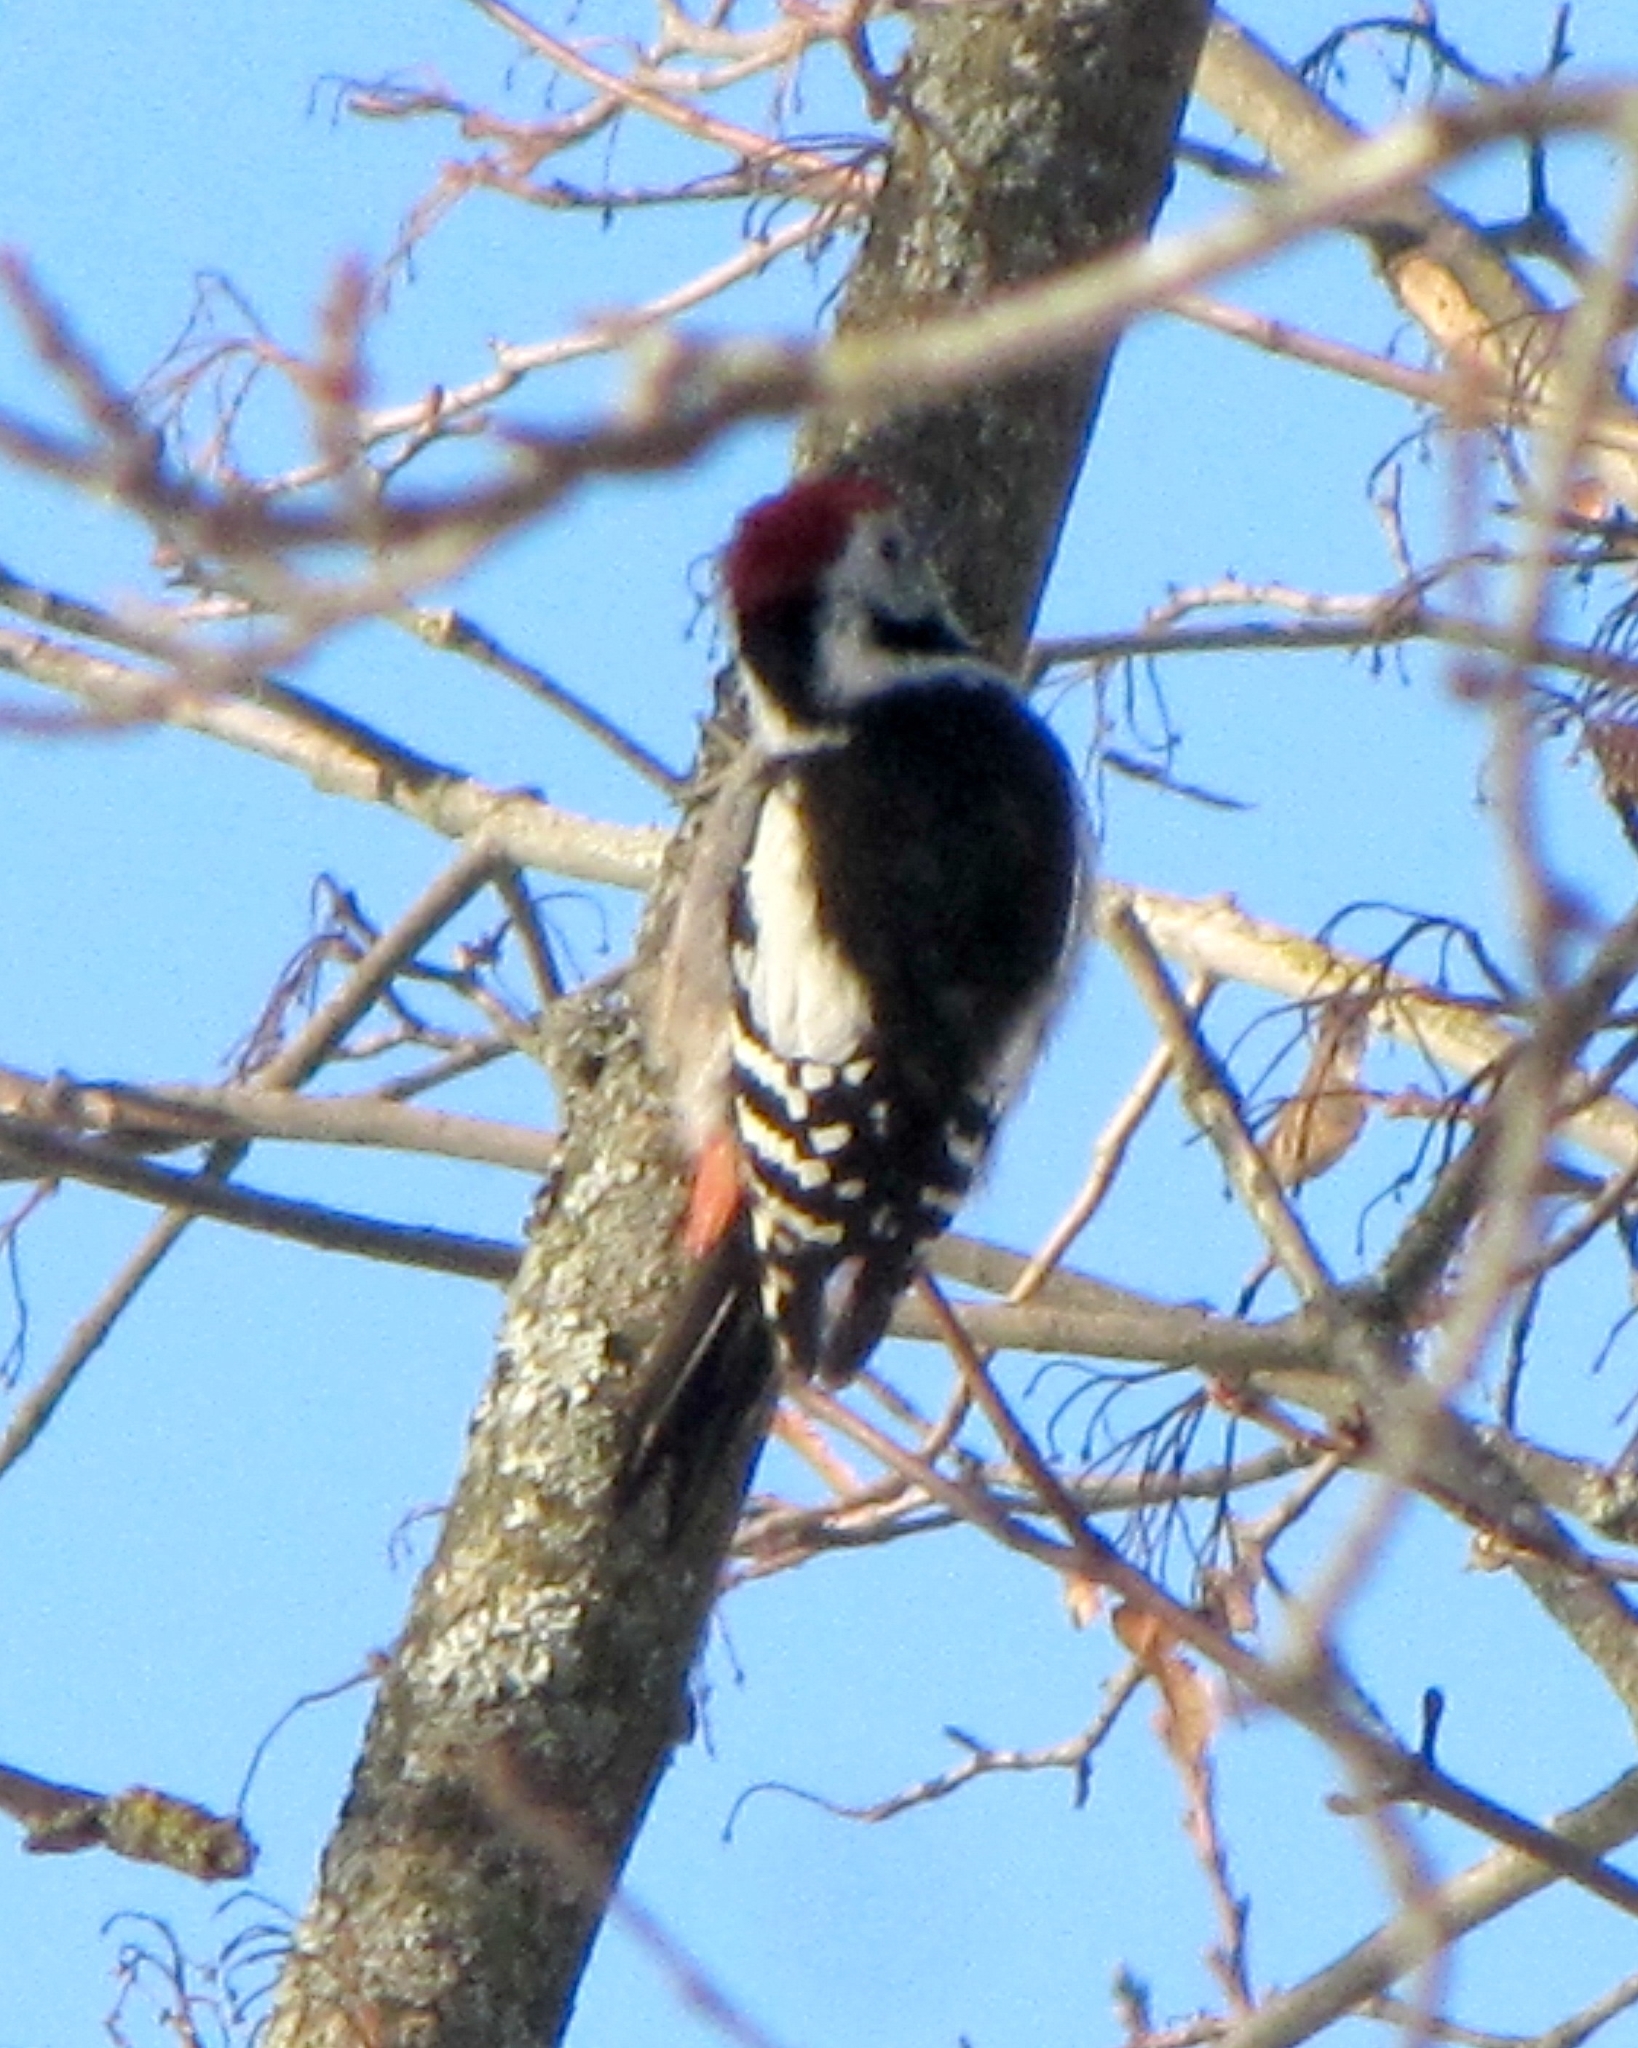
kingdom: Animalia
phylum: Chordata
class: Aves
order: Piciformes
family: Picidae
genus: Dendrocoptes
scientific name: Dendrocoptes medius
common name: Middle spotted woodpecker
